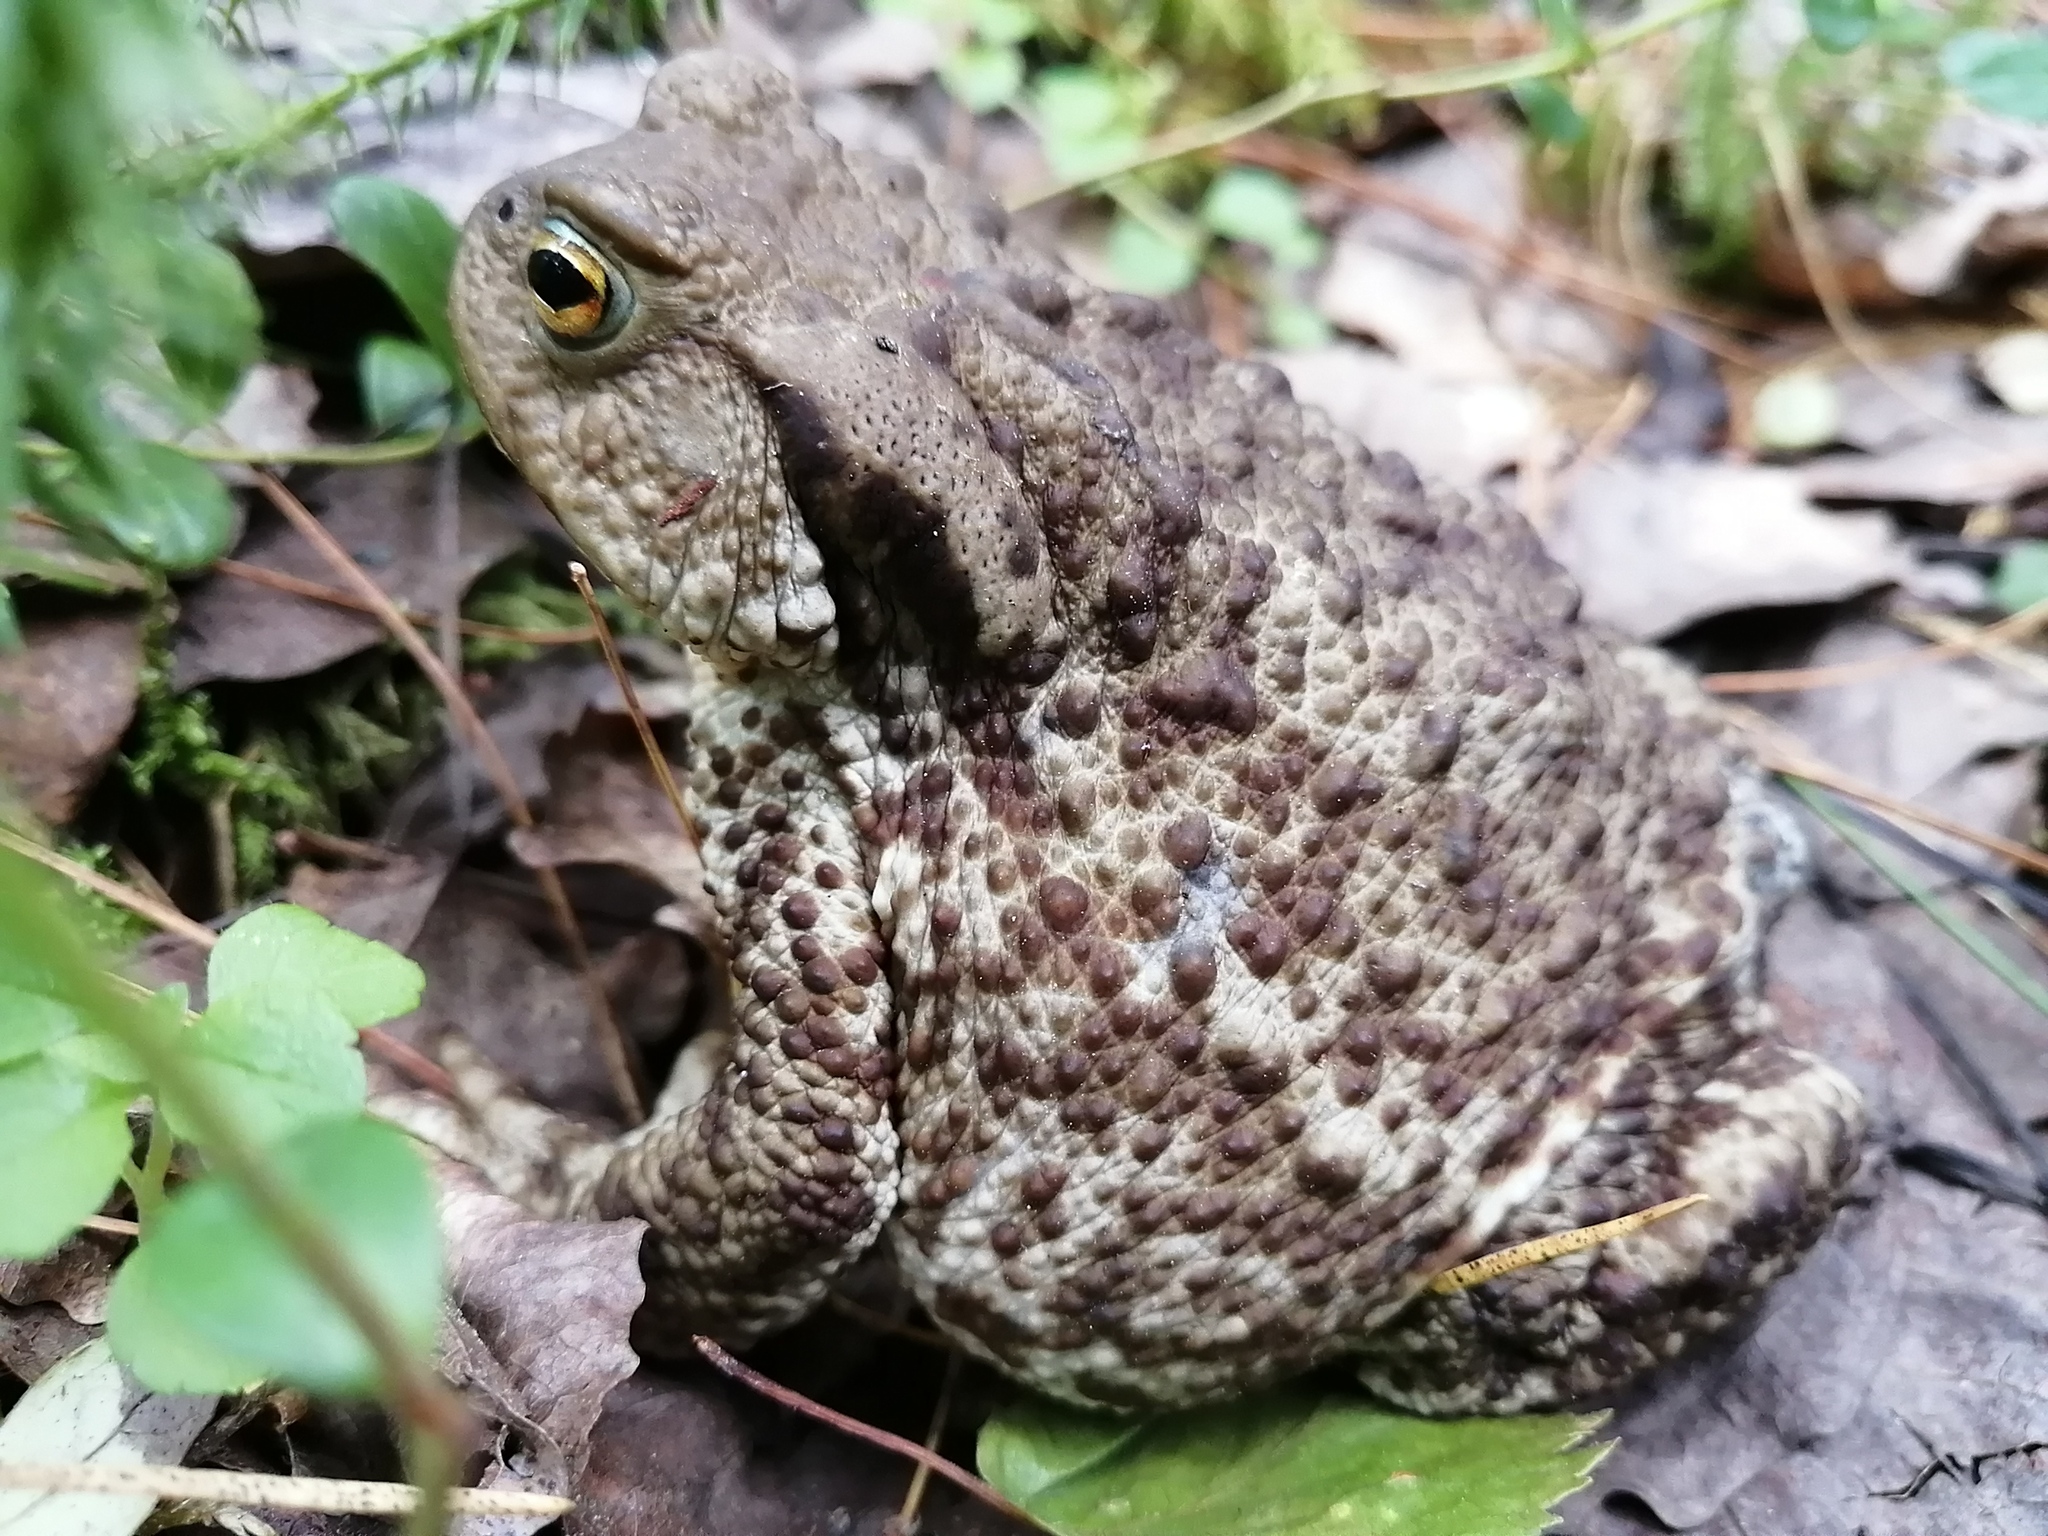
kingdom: Animalia
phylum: Chordata
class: Amphibia
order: Anura
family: Bufonidae
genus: Bufo
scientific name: Bufo bufo
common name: Common toad
